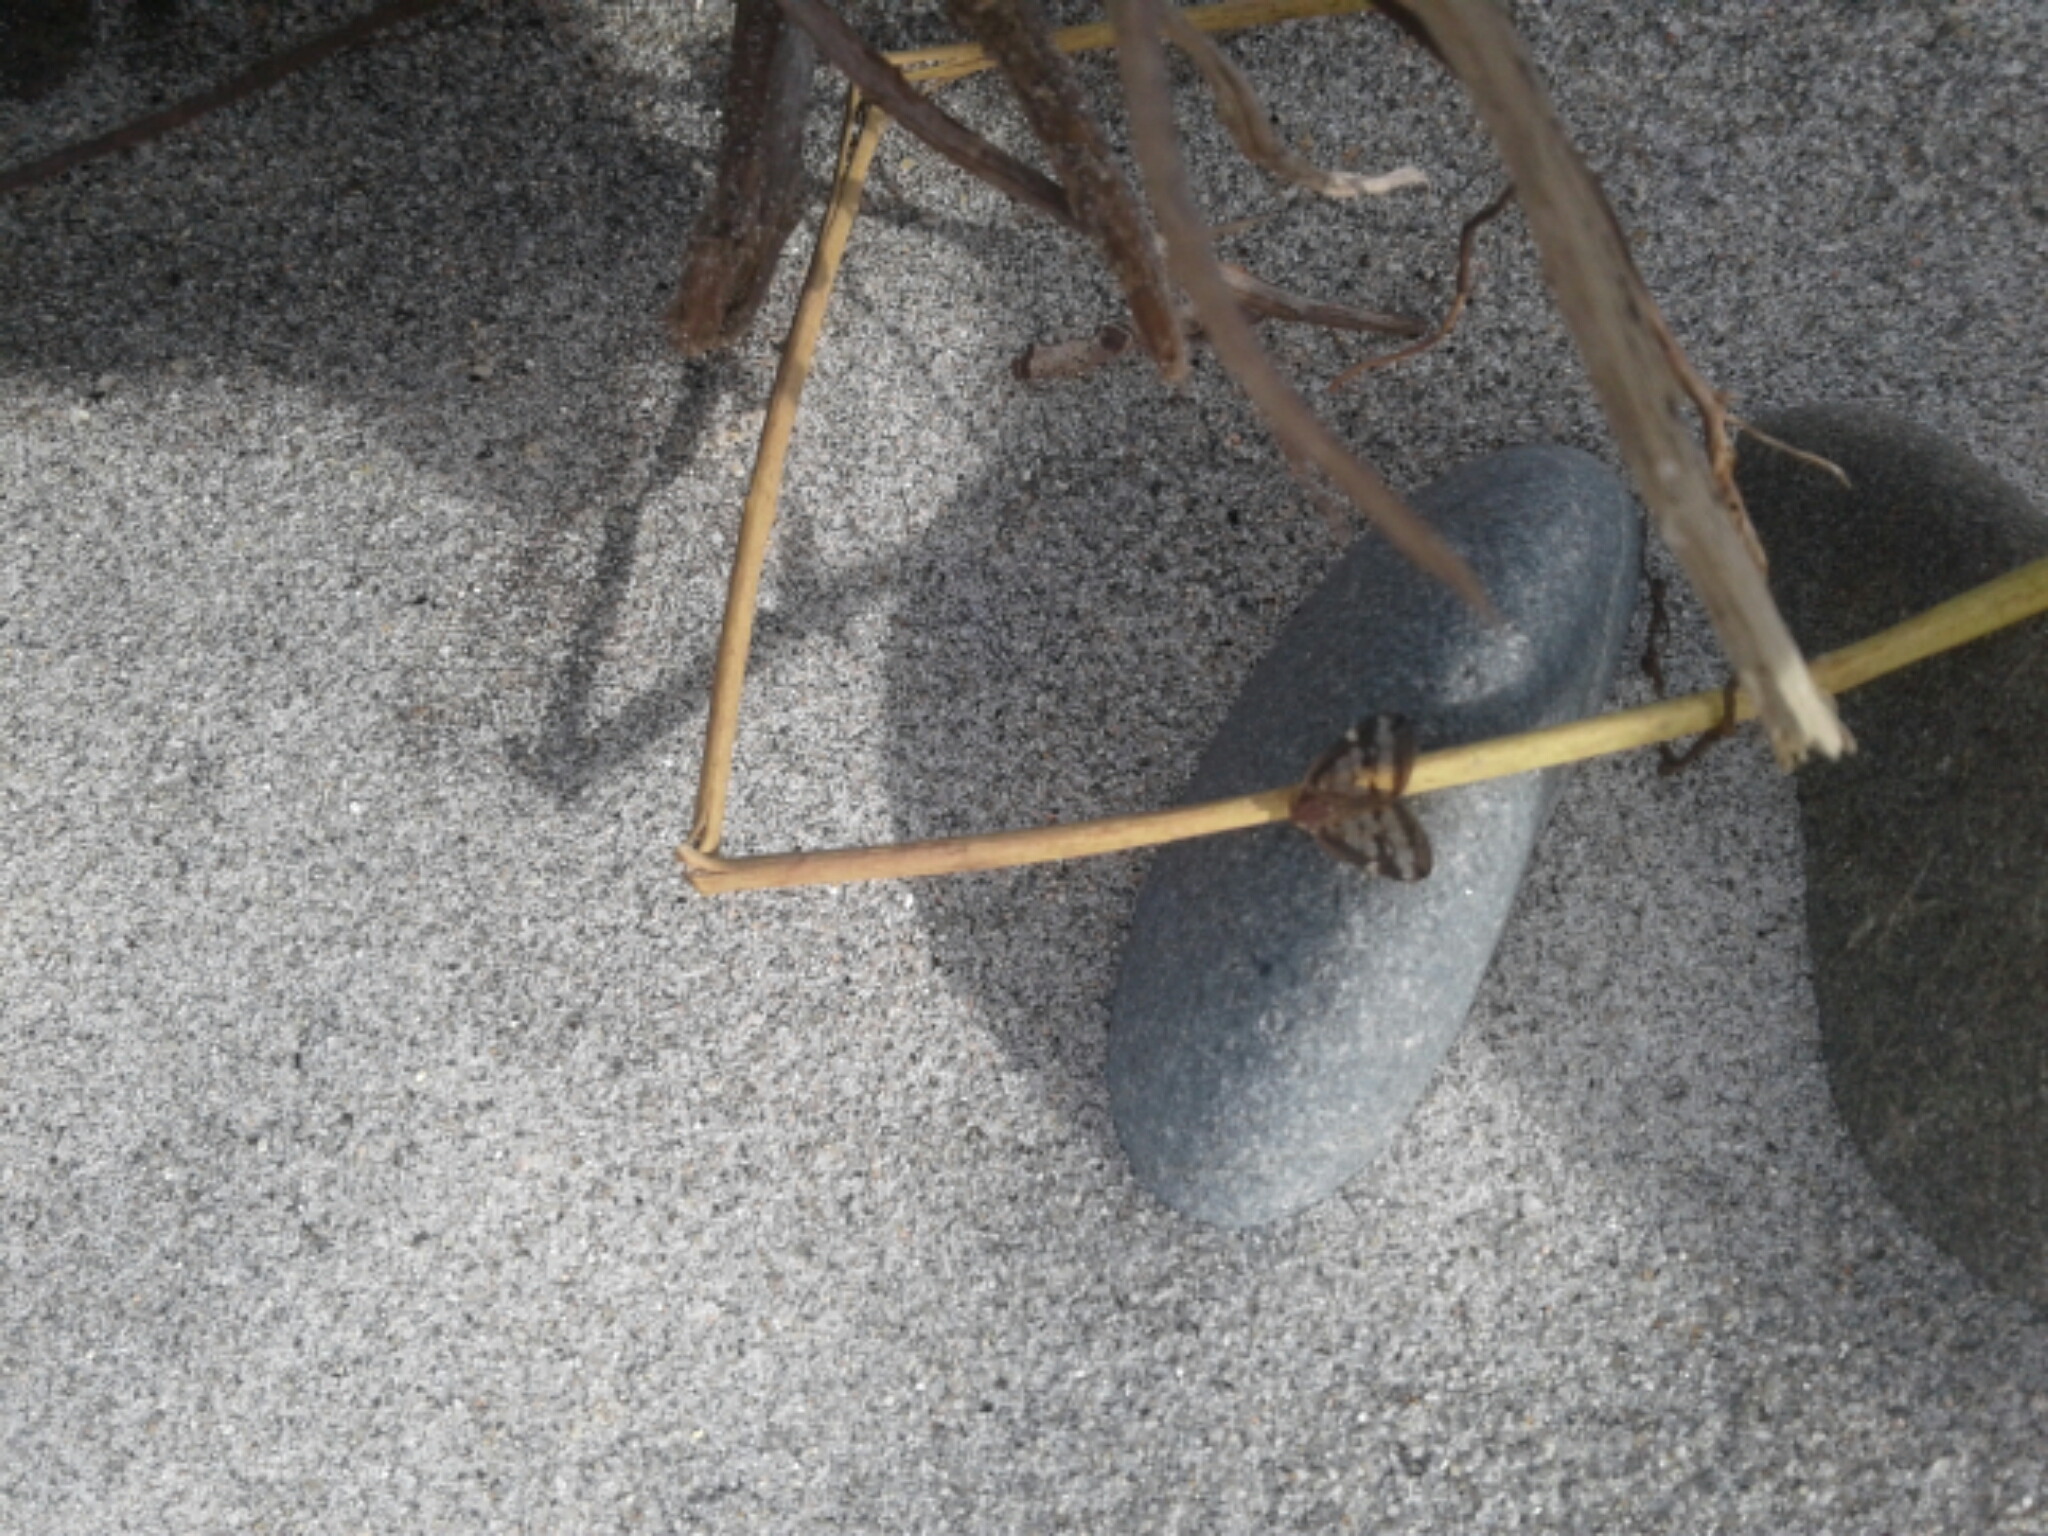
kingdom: Animalia
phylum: Arthropoda
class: Insecta
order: Hemiptera
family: Ricaniidae
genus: Scolypopa
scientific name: Scolypopa australis
